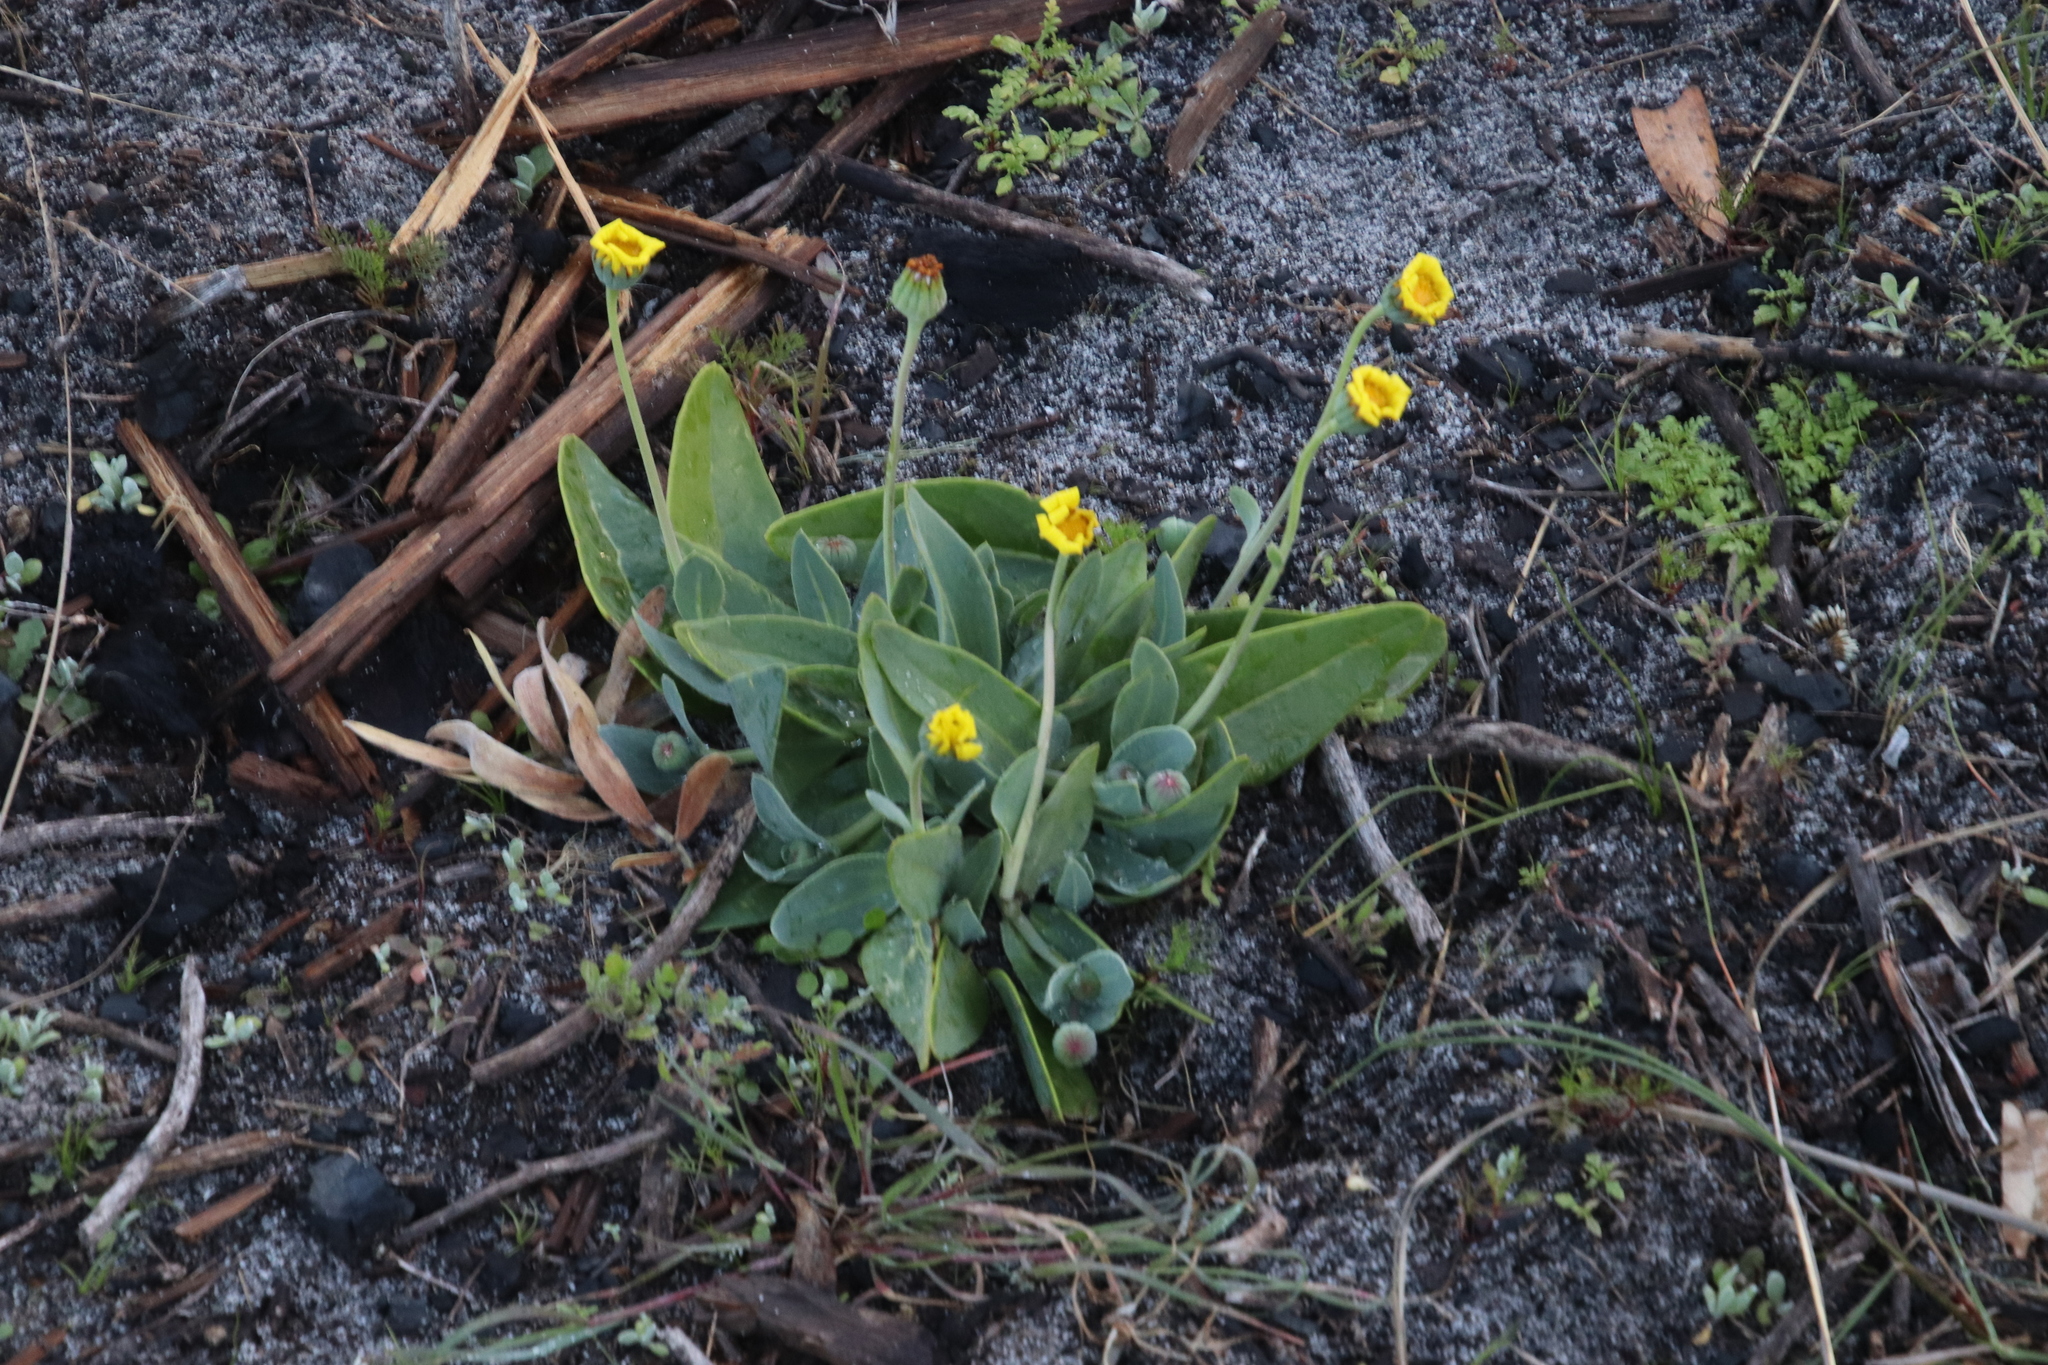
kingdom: Plantae
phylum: Tracheophyta
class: Magnoliopsida
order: Asterales
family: Asteraceae
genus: Othonna
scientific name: Othonna bulbosa
